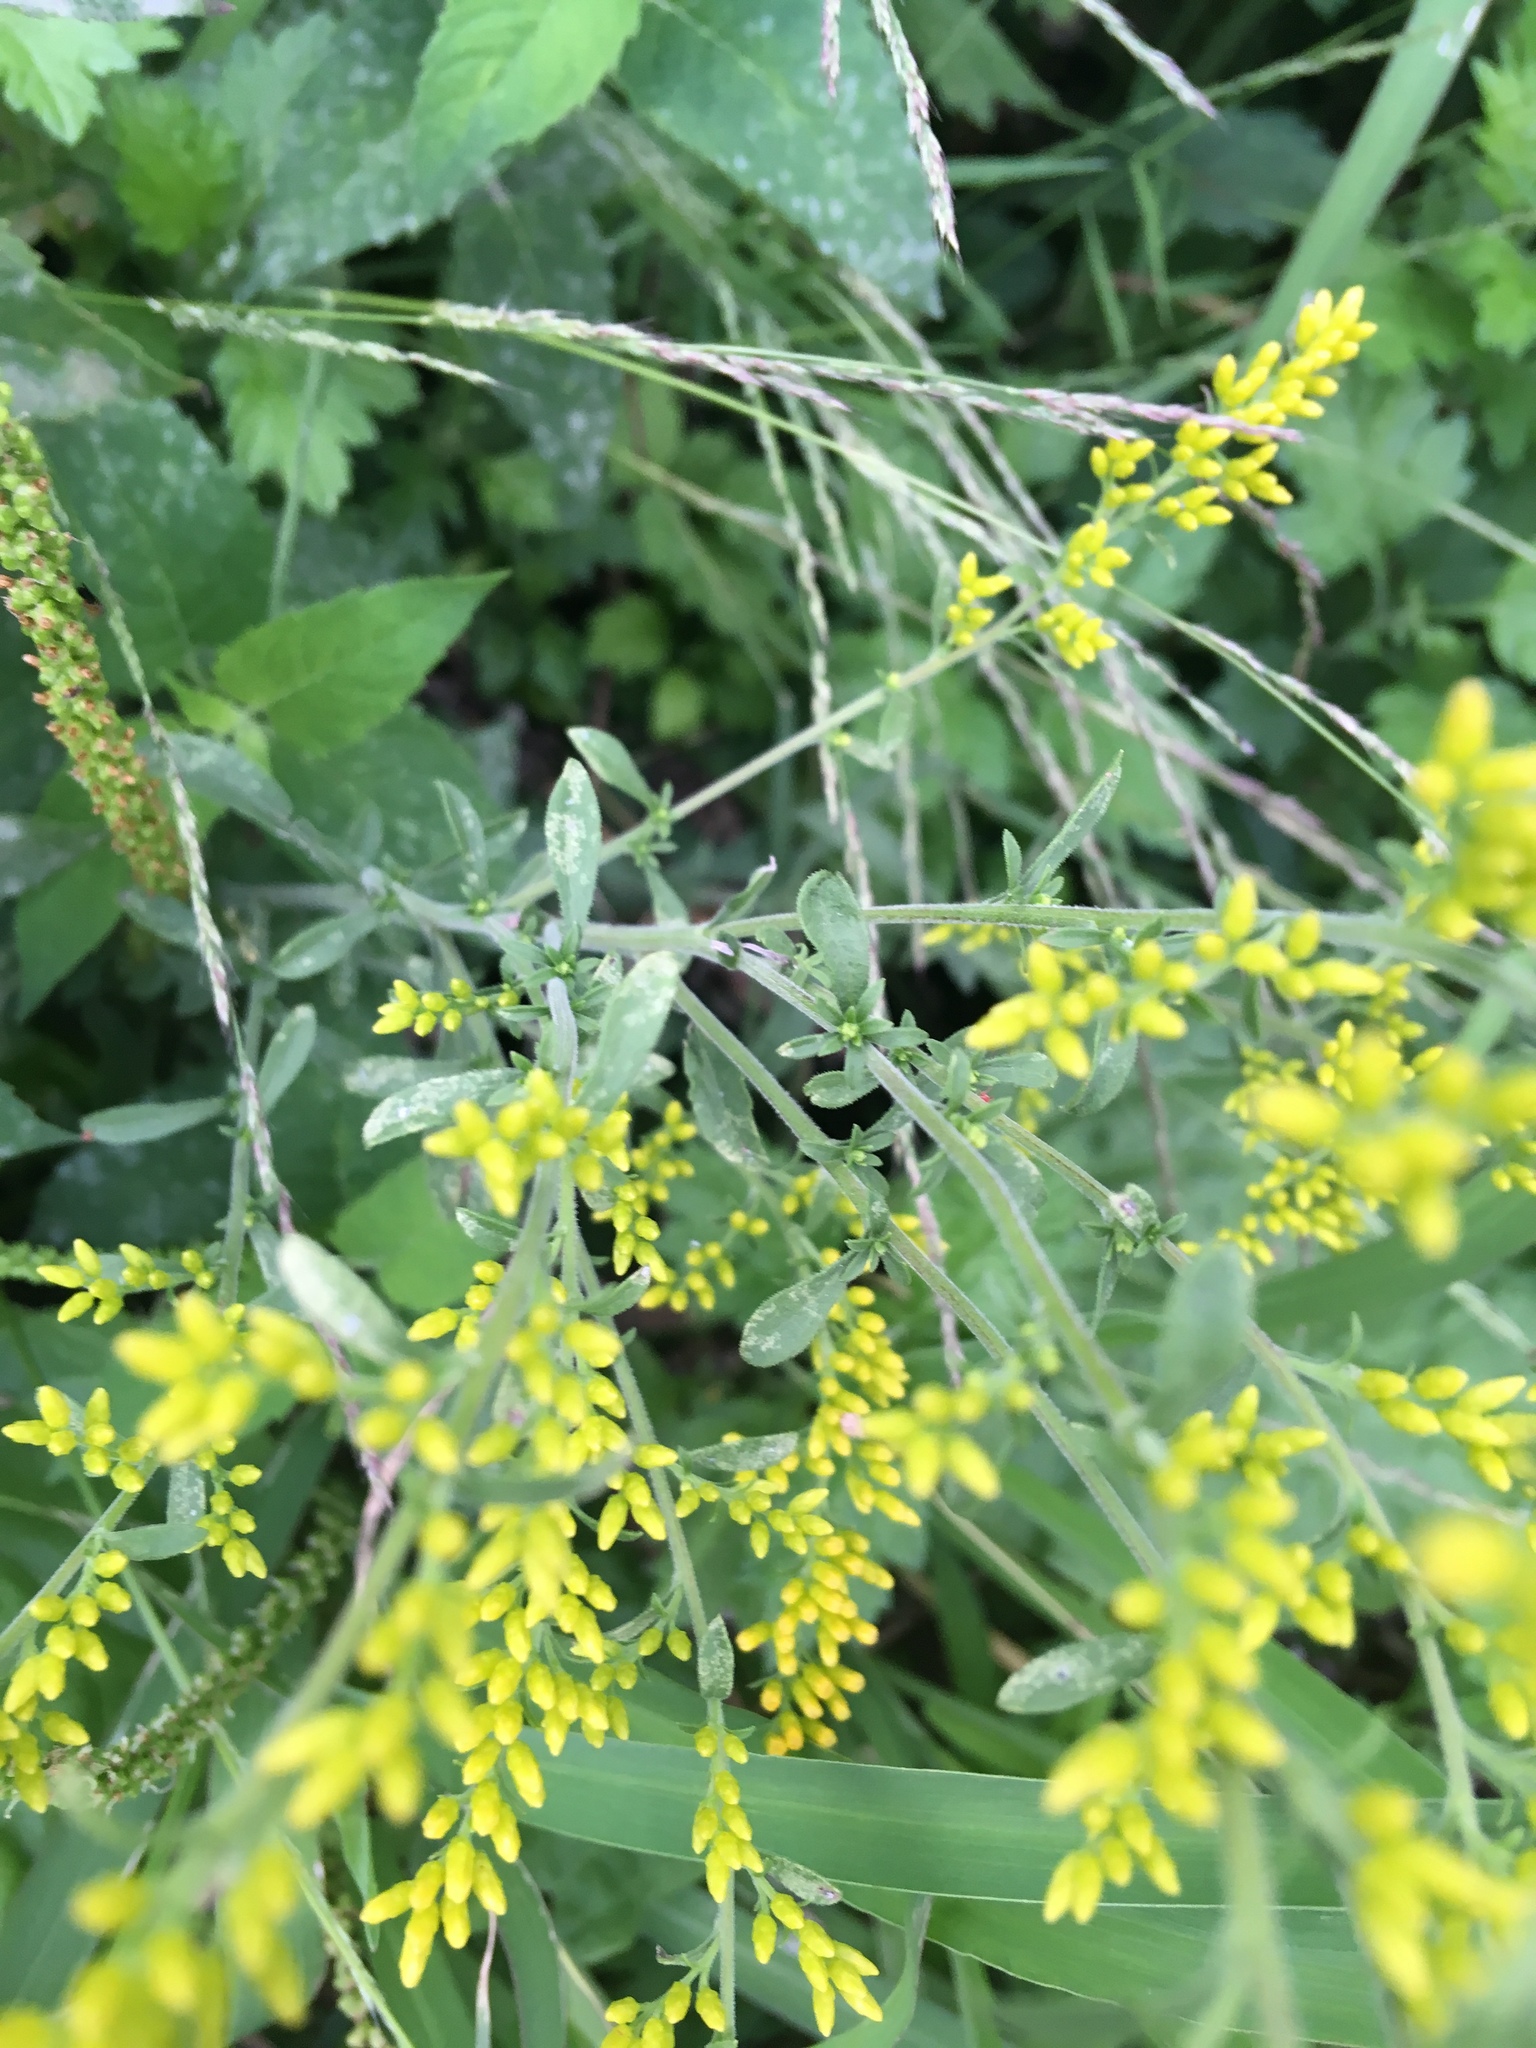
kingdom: Plantae
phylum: Tracheophyta
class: Magnoliopsida
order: Asterales
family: Asteraceae
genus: Solidago
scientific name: Solidago nemoralis
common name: Grey goldenrod
